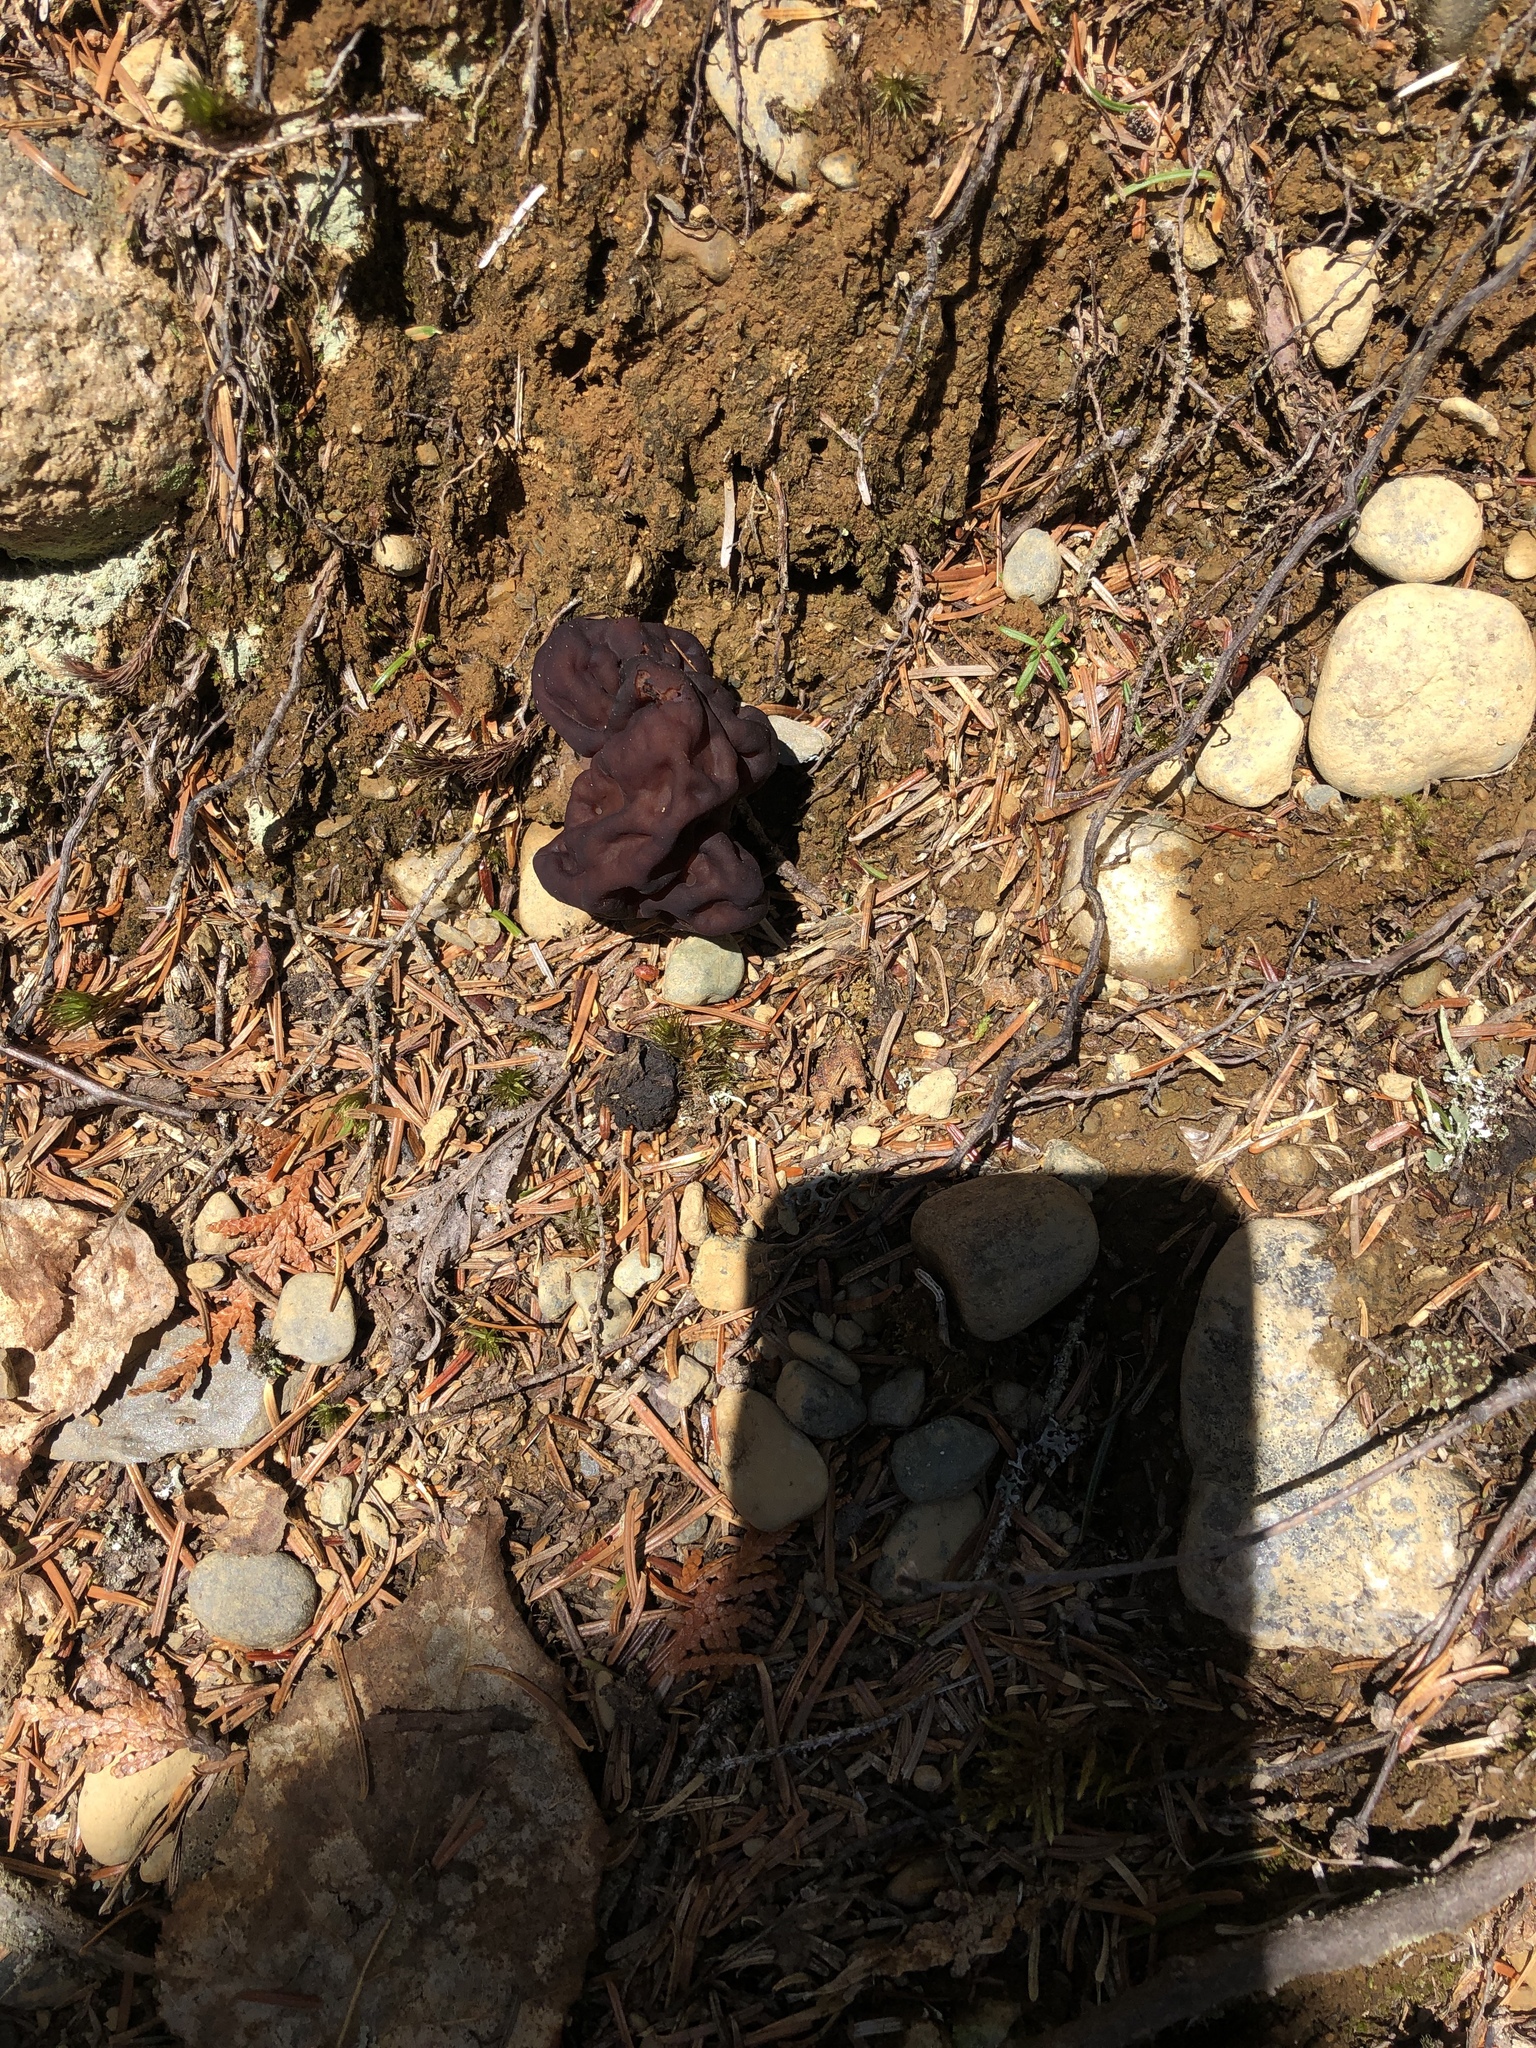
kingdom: Fungi
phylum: Ascomycota
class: Pezizomycetes
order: Pezizales
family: Discinaceae
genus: Gyromitra
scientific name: Gyromitra esculenta
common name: False morel
